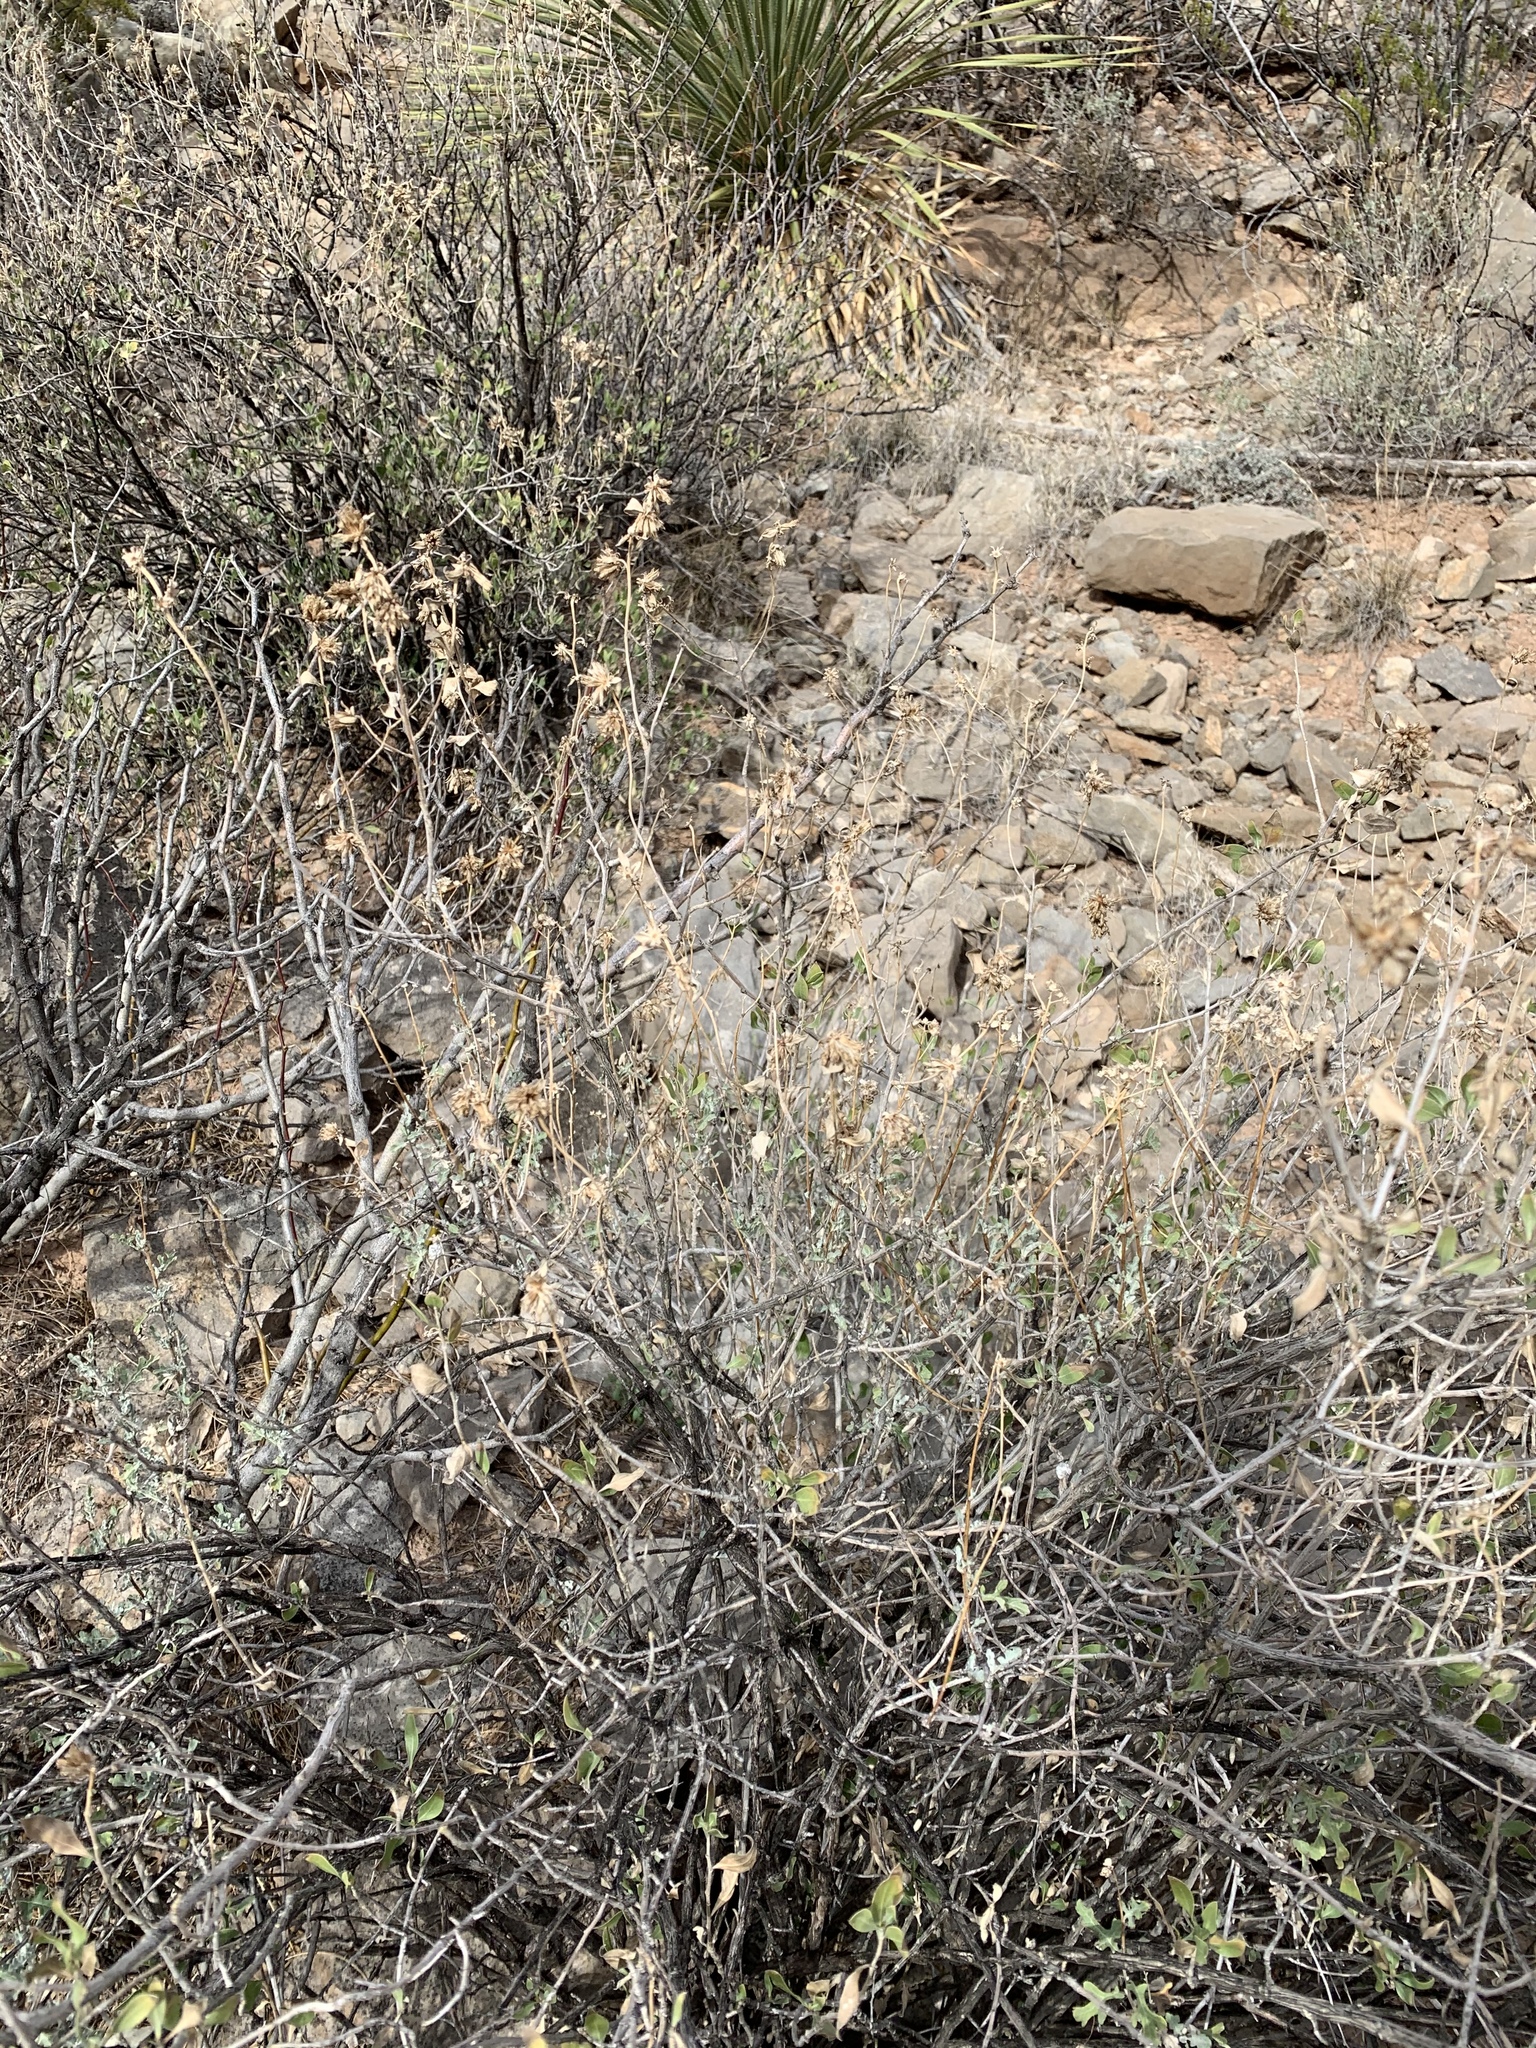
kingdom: Plantae
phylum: Tracheophyta
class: Magnoliopsida
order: Asterales
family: Asteraceae
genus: Flourensia
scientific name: Flourensia cernua
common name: Varnishbush
